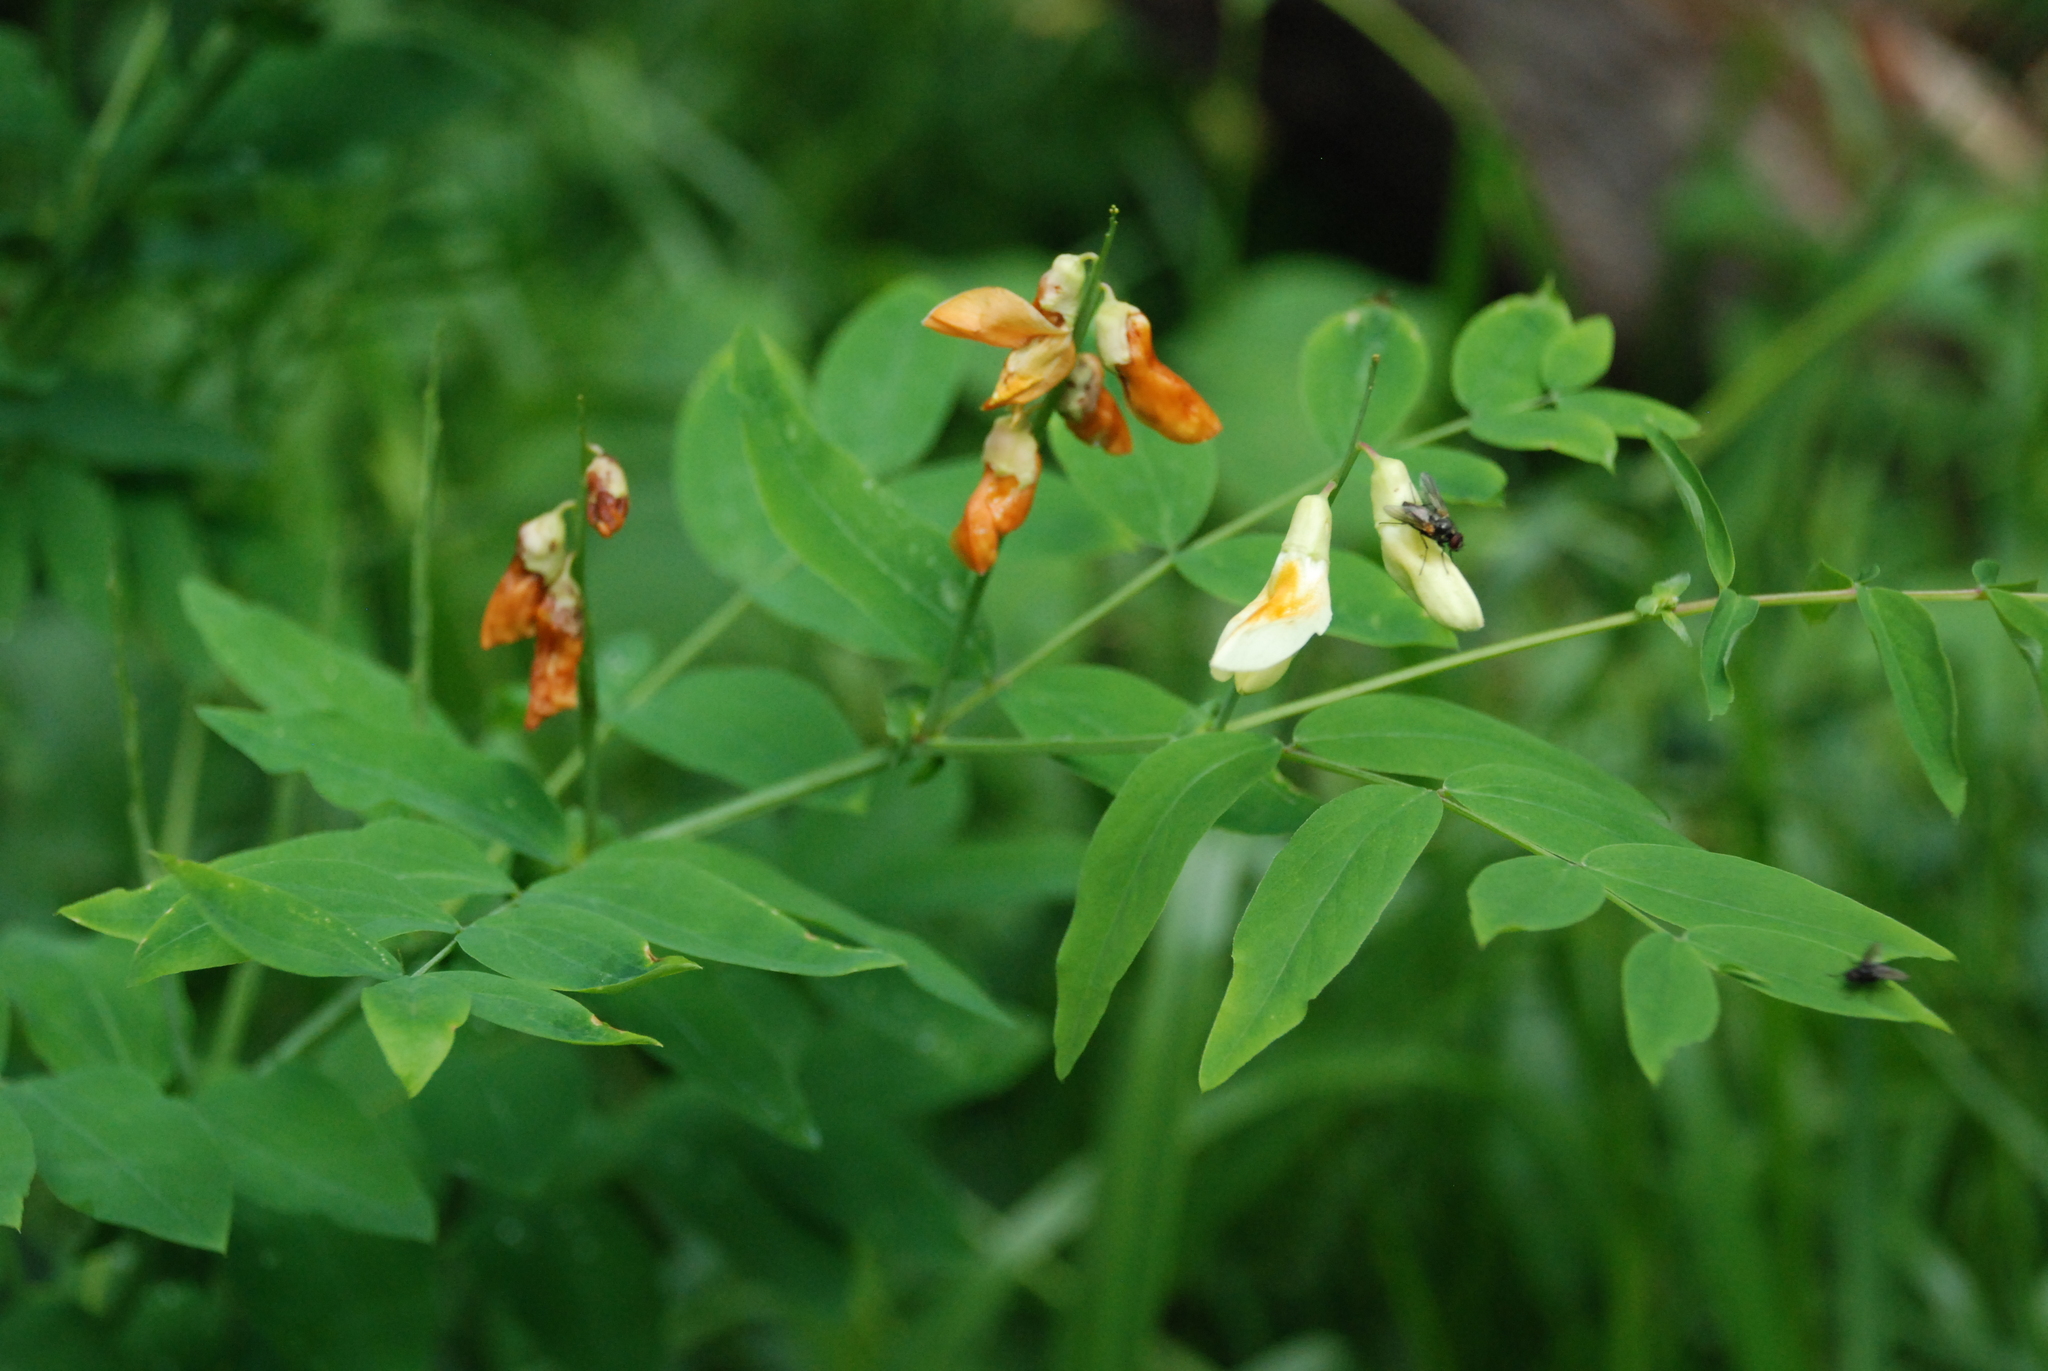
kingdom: Plantae
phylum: Tracheophyta
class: Magnoliopsida
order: Fabales
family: Fabaceae
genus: Lathyrus
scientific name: Lathyrus gmelinii
